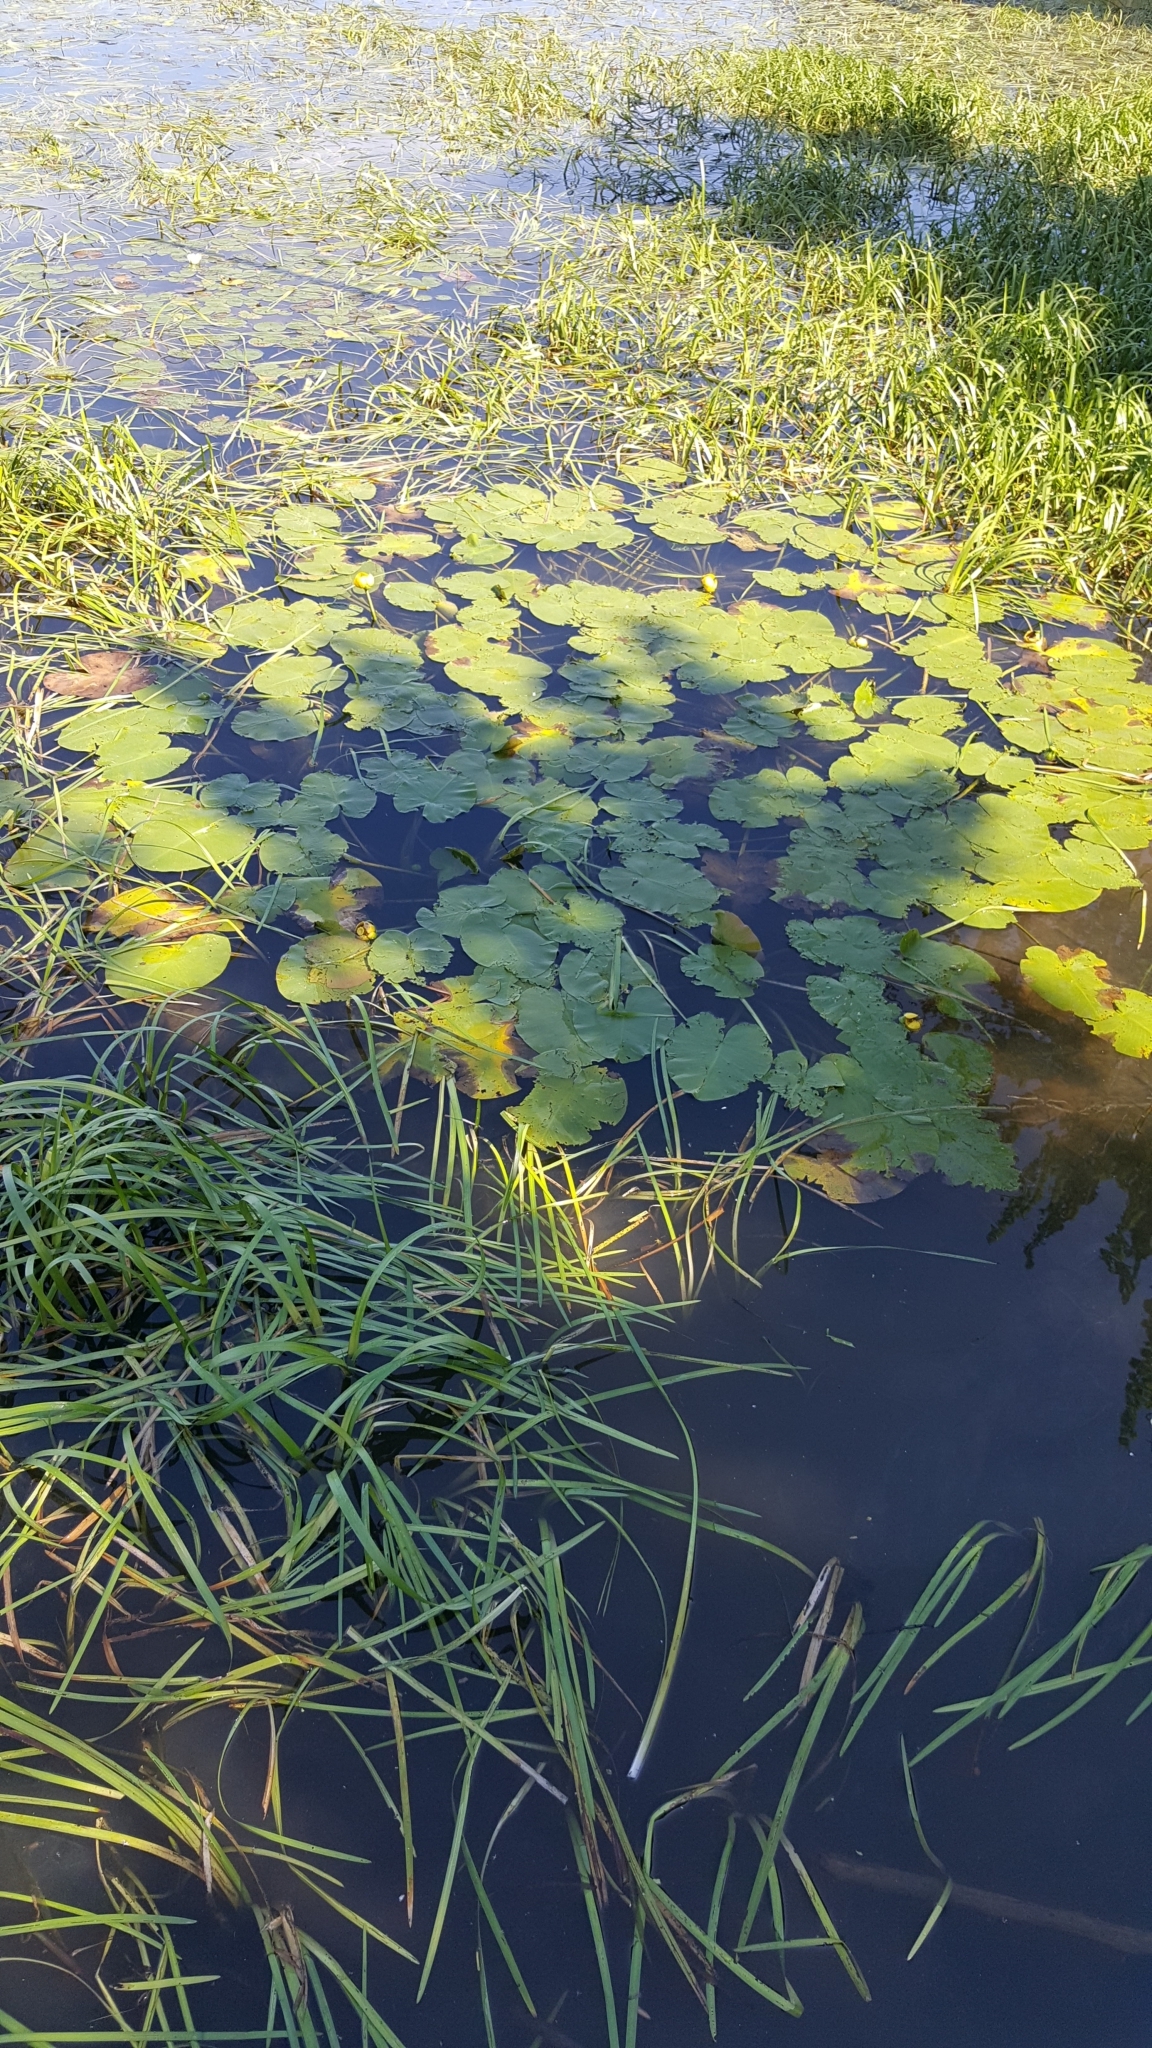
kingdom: Plantae
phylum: Tracheophyta
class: Magnoliopsida
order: Nymphaeales
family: Nymphaeaceae
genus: Nuphar
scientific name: Nuphar variegata
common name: Beaver-root
